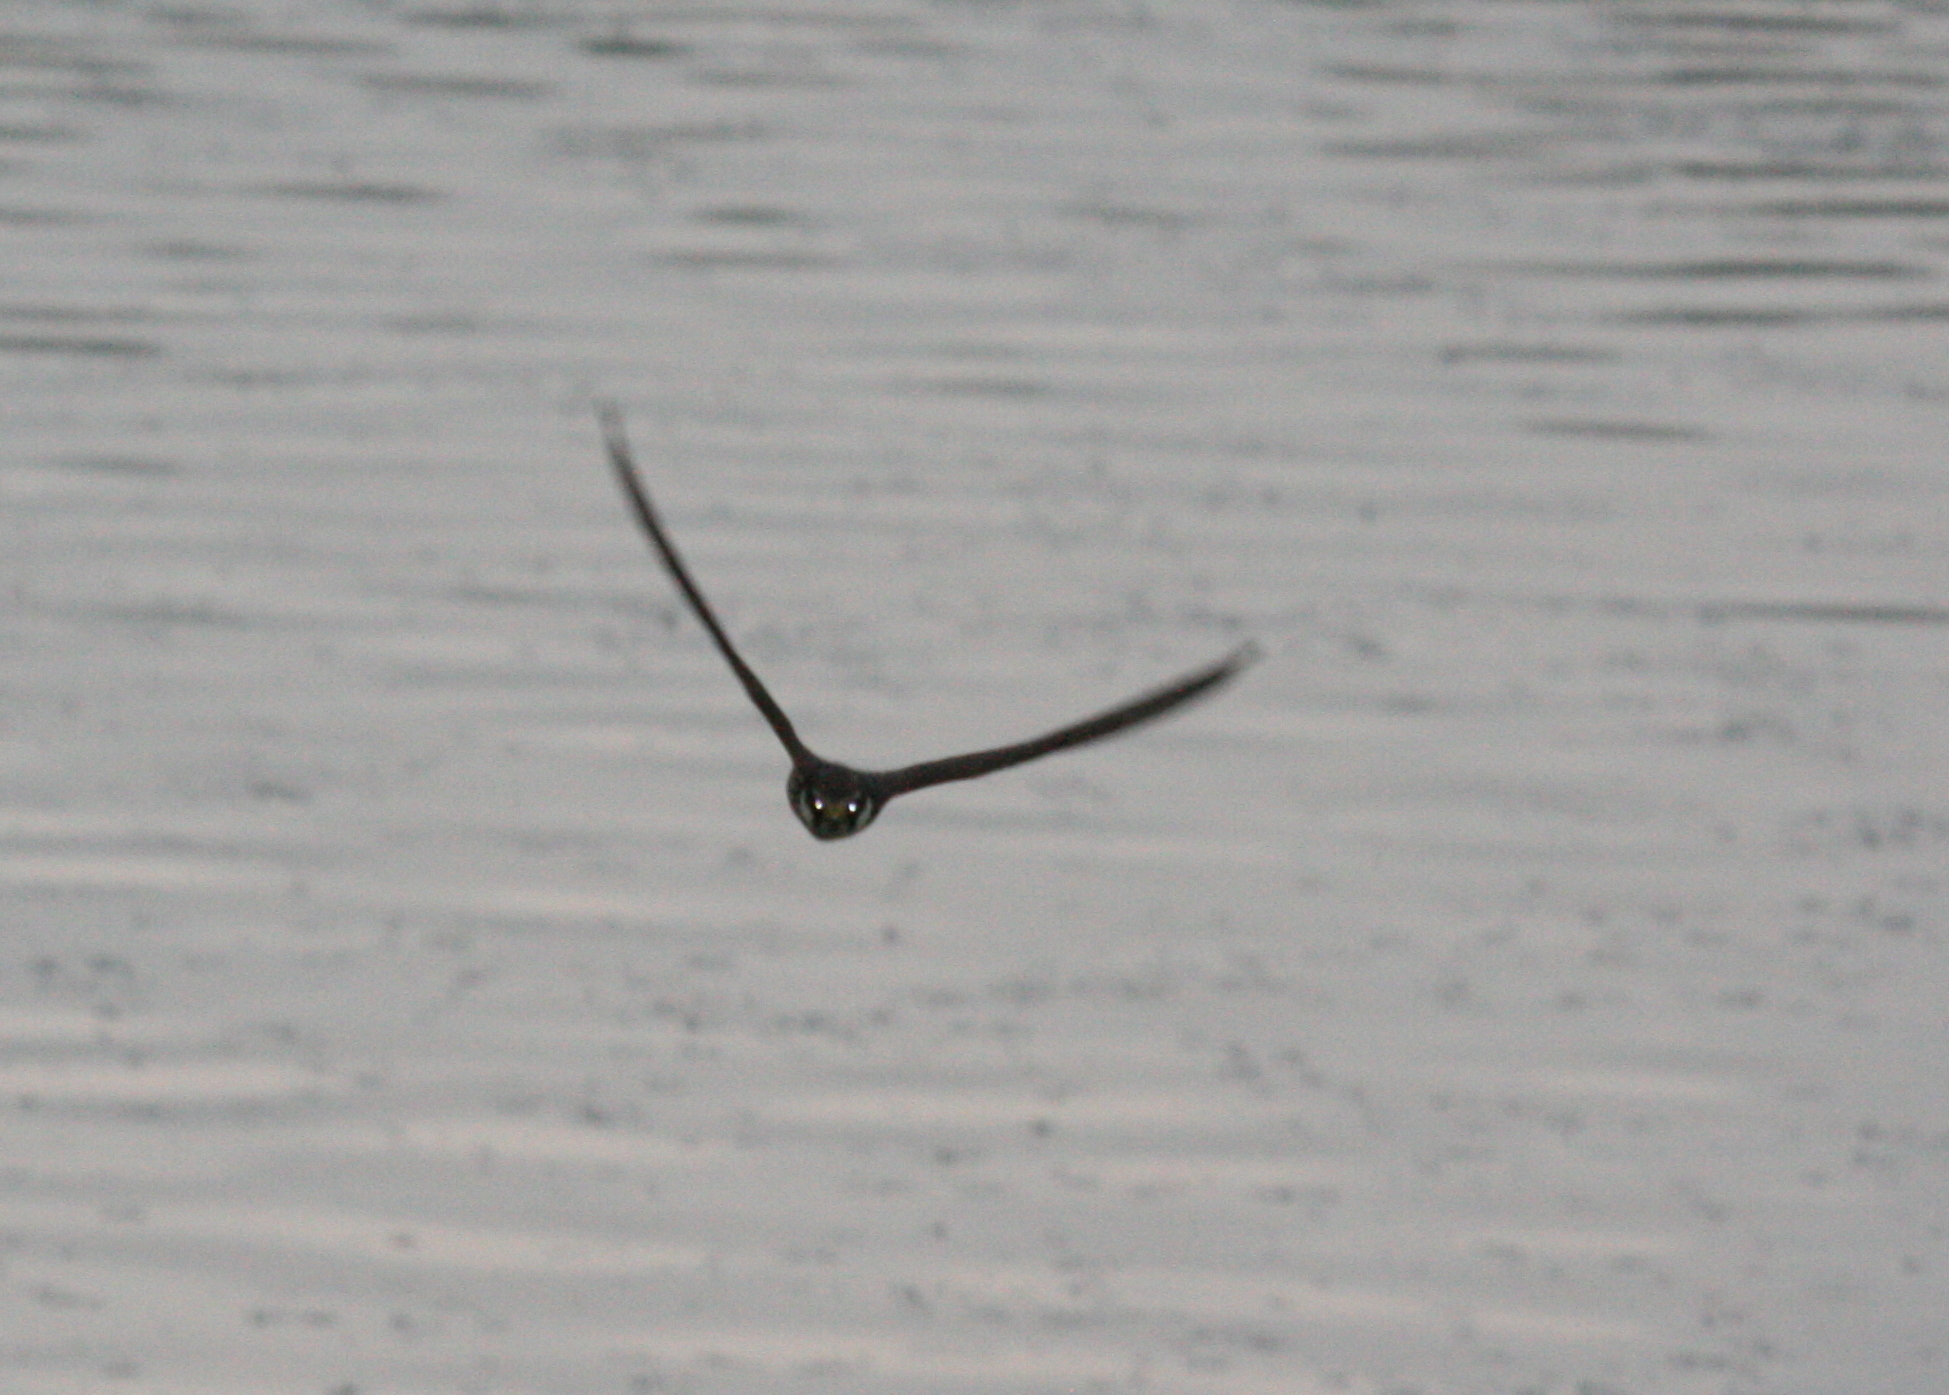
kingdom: Animalia
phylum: Chordata
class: Aves
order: Falconiformes
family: Falconidae
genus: Falco
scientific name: Falco subbuteo
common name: Eurasian hobby
